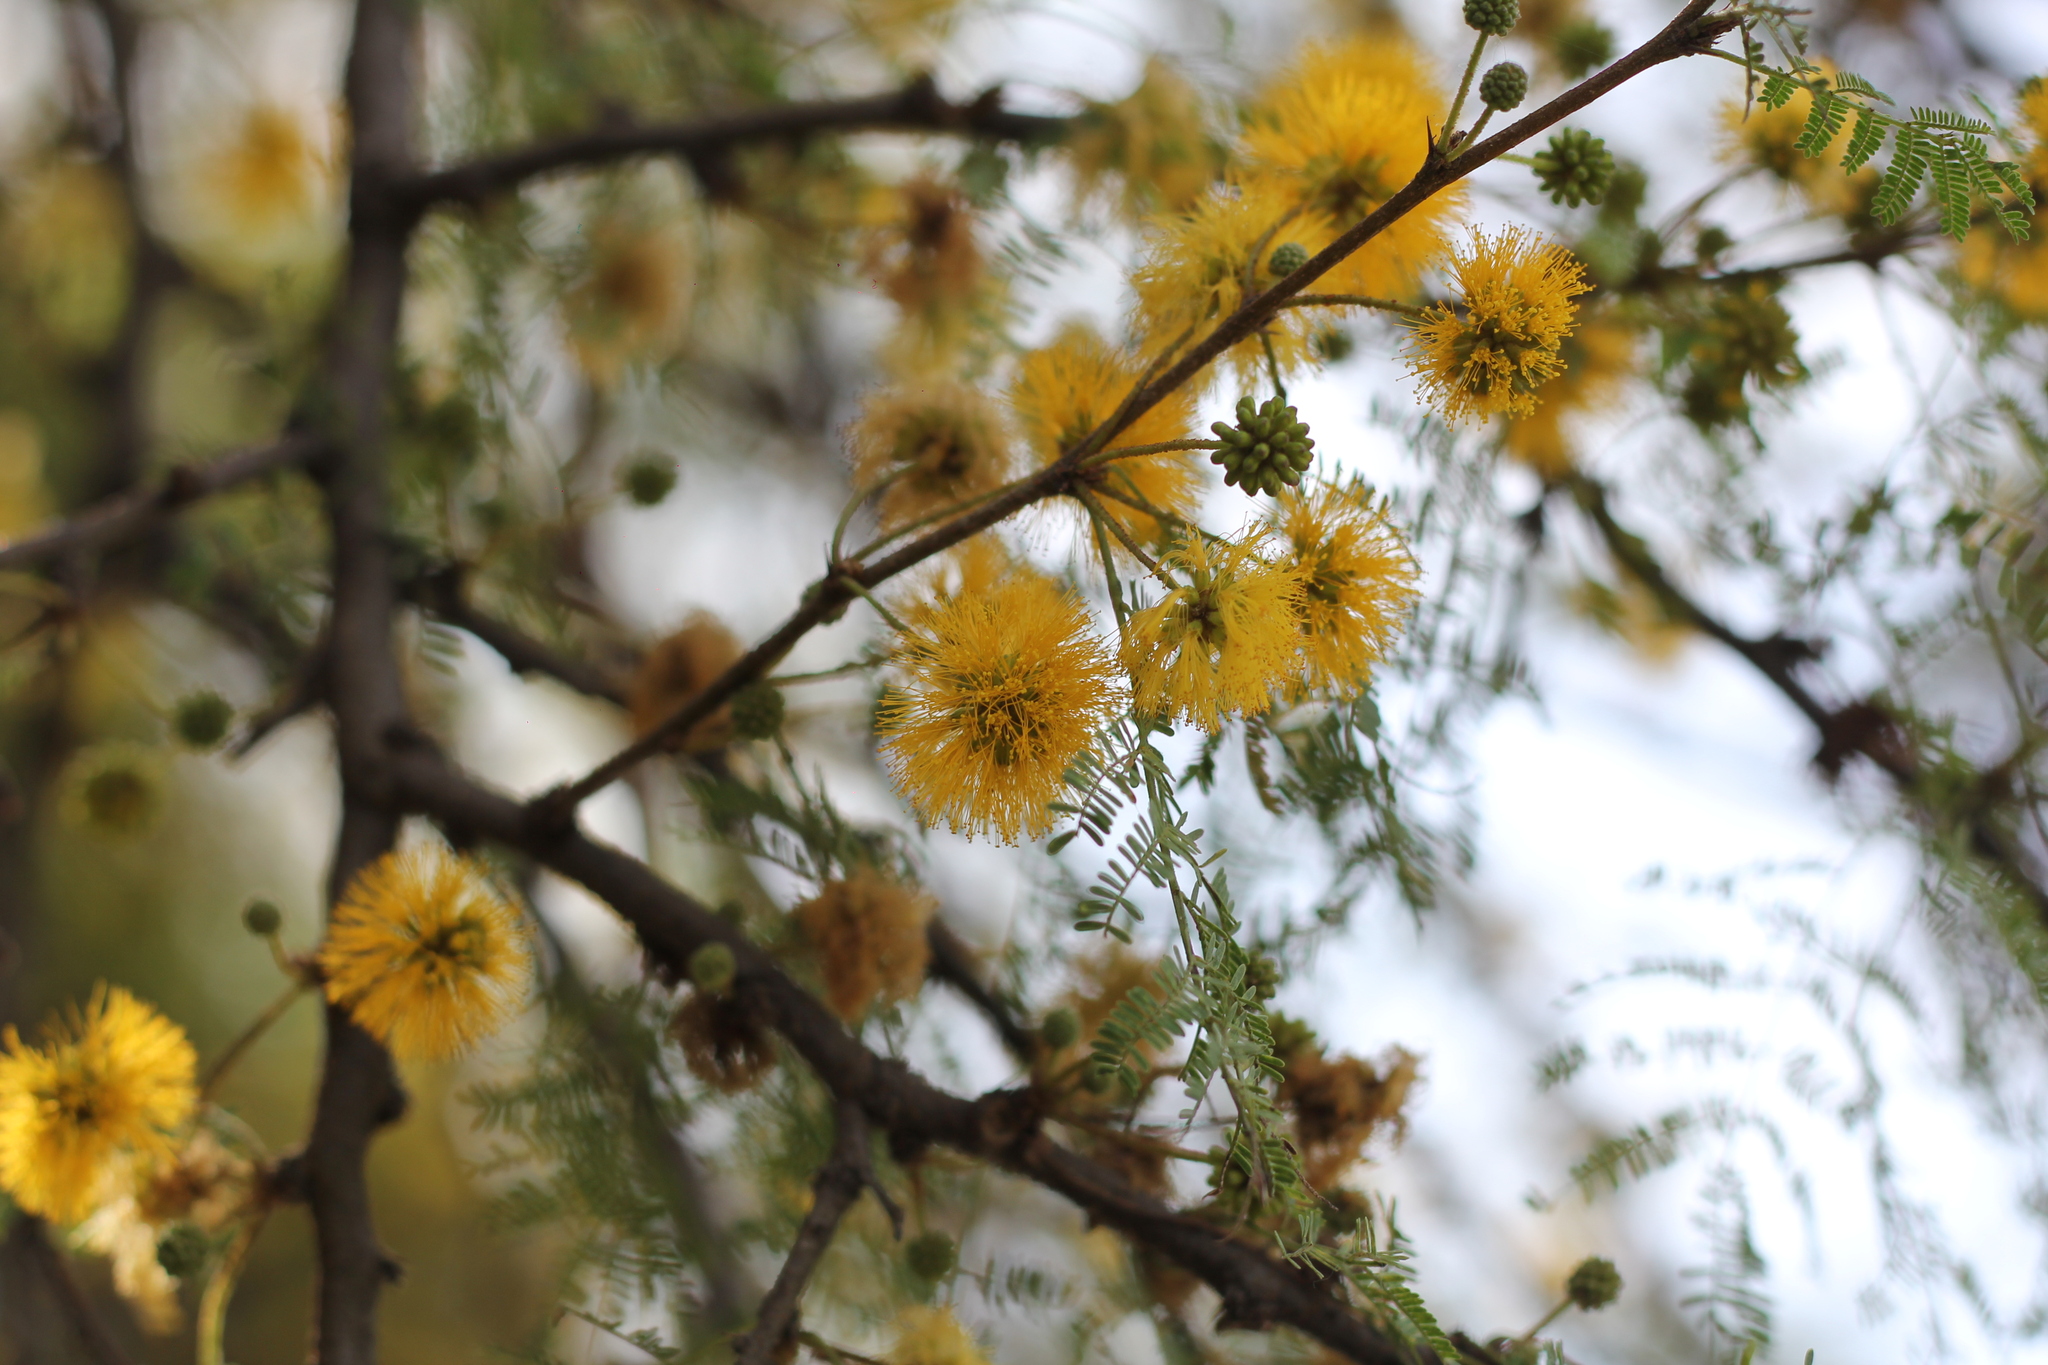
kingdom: Plantae
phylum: Tracheophyta
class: Magnoliopsida
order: Fabales
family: Fabaceae
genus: Vachellia
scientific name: Vachellia caven
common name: Roman cassie
